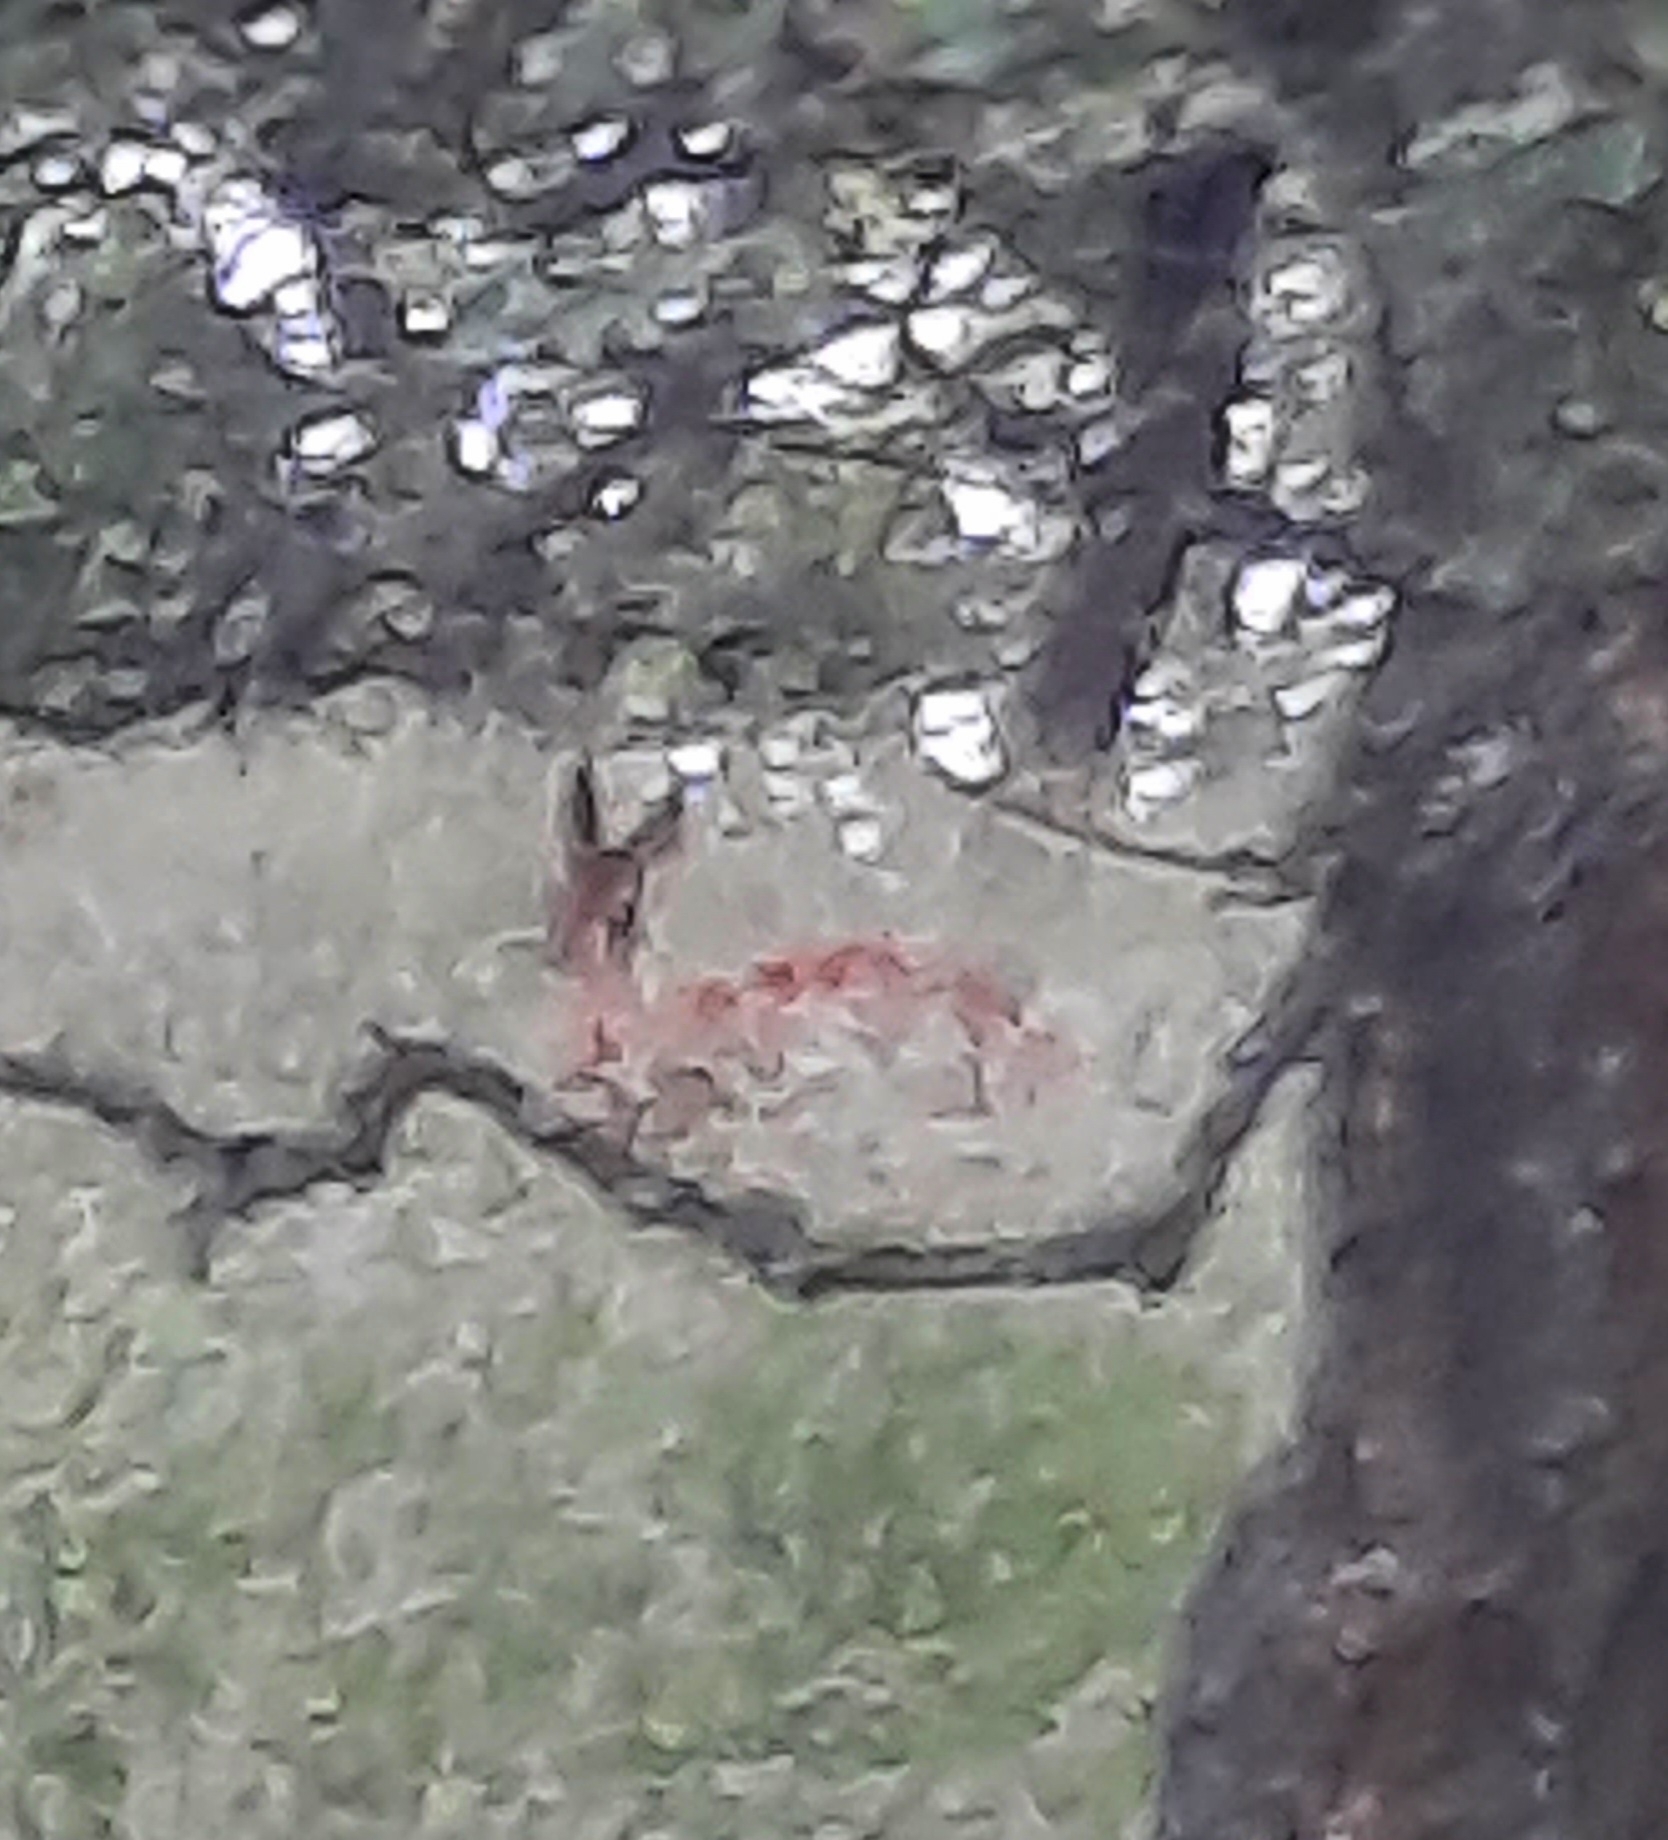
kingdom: Animalia
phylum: Chordata
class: Mammalia
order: Artiodactyla
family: Cervidae
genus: Capreolus
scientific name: Capreolus capreolus
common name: Western roe deer
